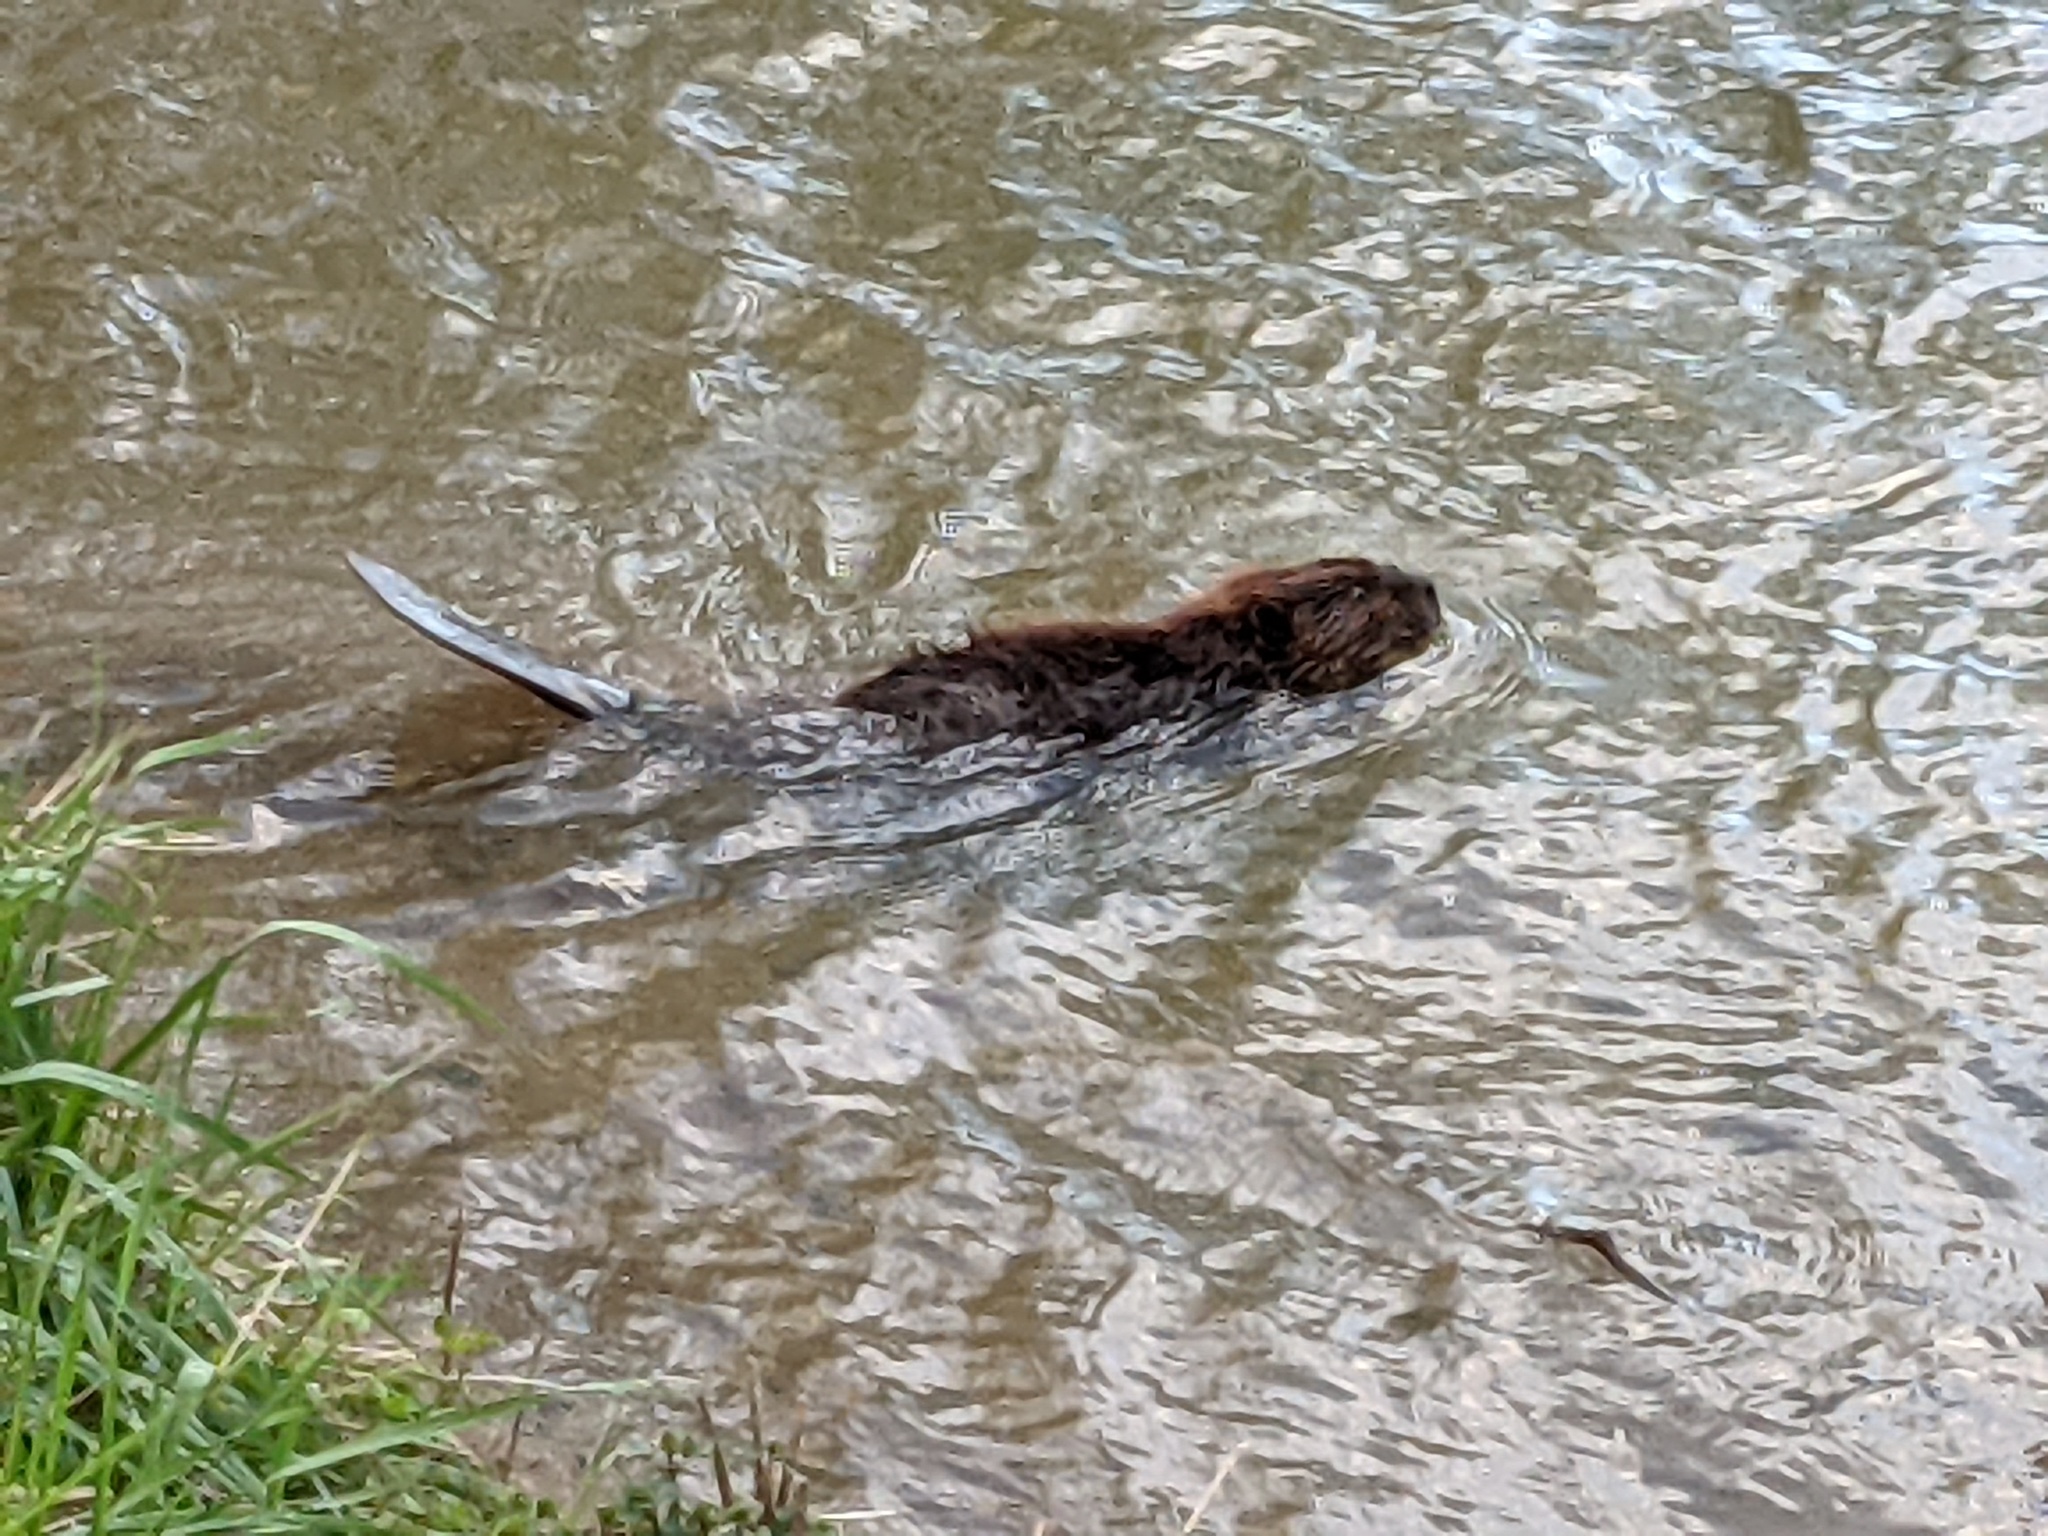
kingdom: Animalia
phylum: Chordata
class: Mammalia
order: Rodentia
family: Castoridae
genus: Castor
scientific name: Castor canadensis
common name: American beaver
